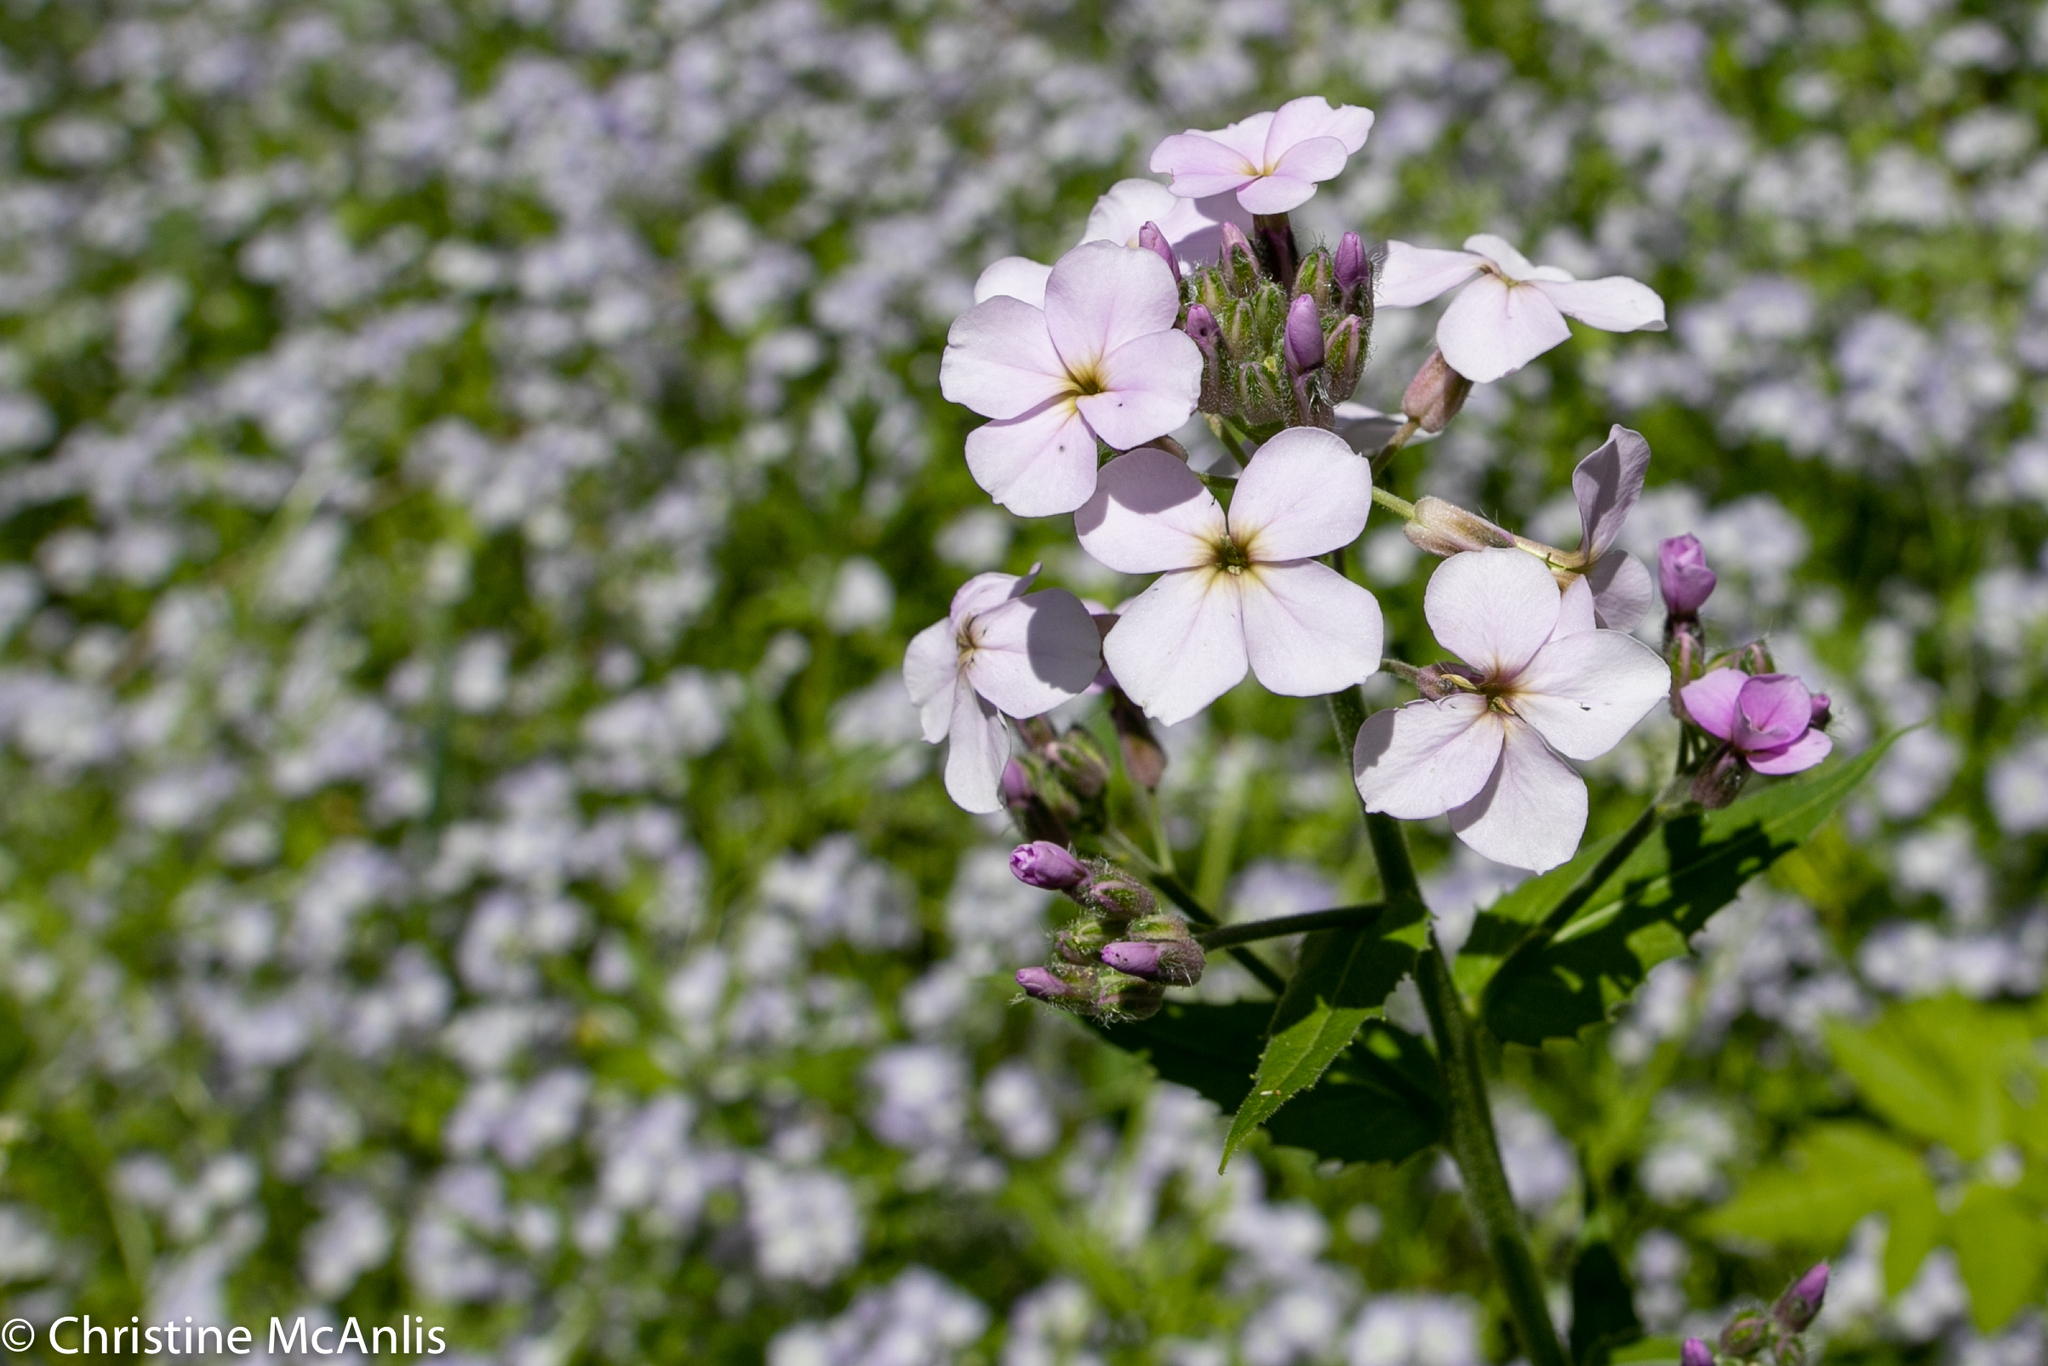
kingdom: Plantae
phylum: Tracheophyta
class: Magnoliopsida
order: Brassicales
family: Brassicaceae
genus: Hesperis
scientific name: Hesperis matronalis
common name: Dame's-violet
